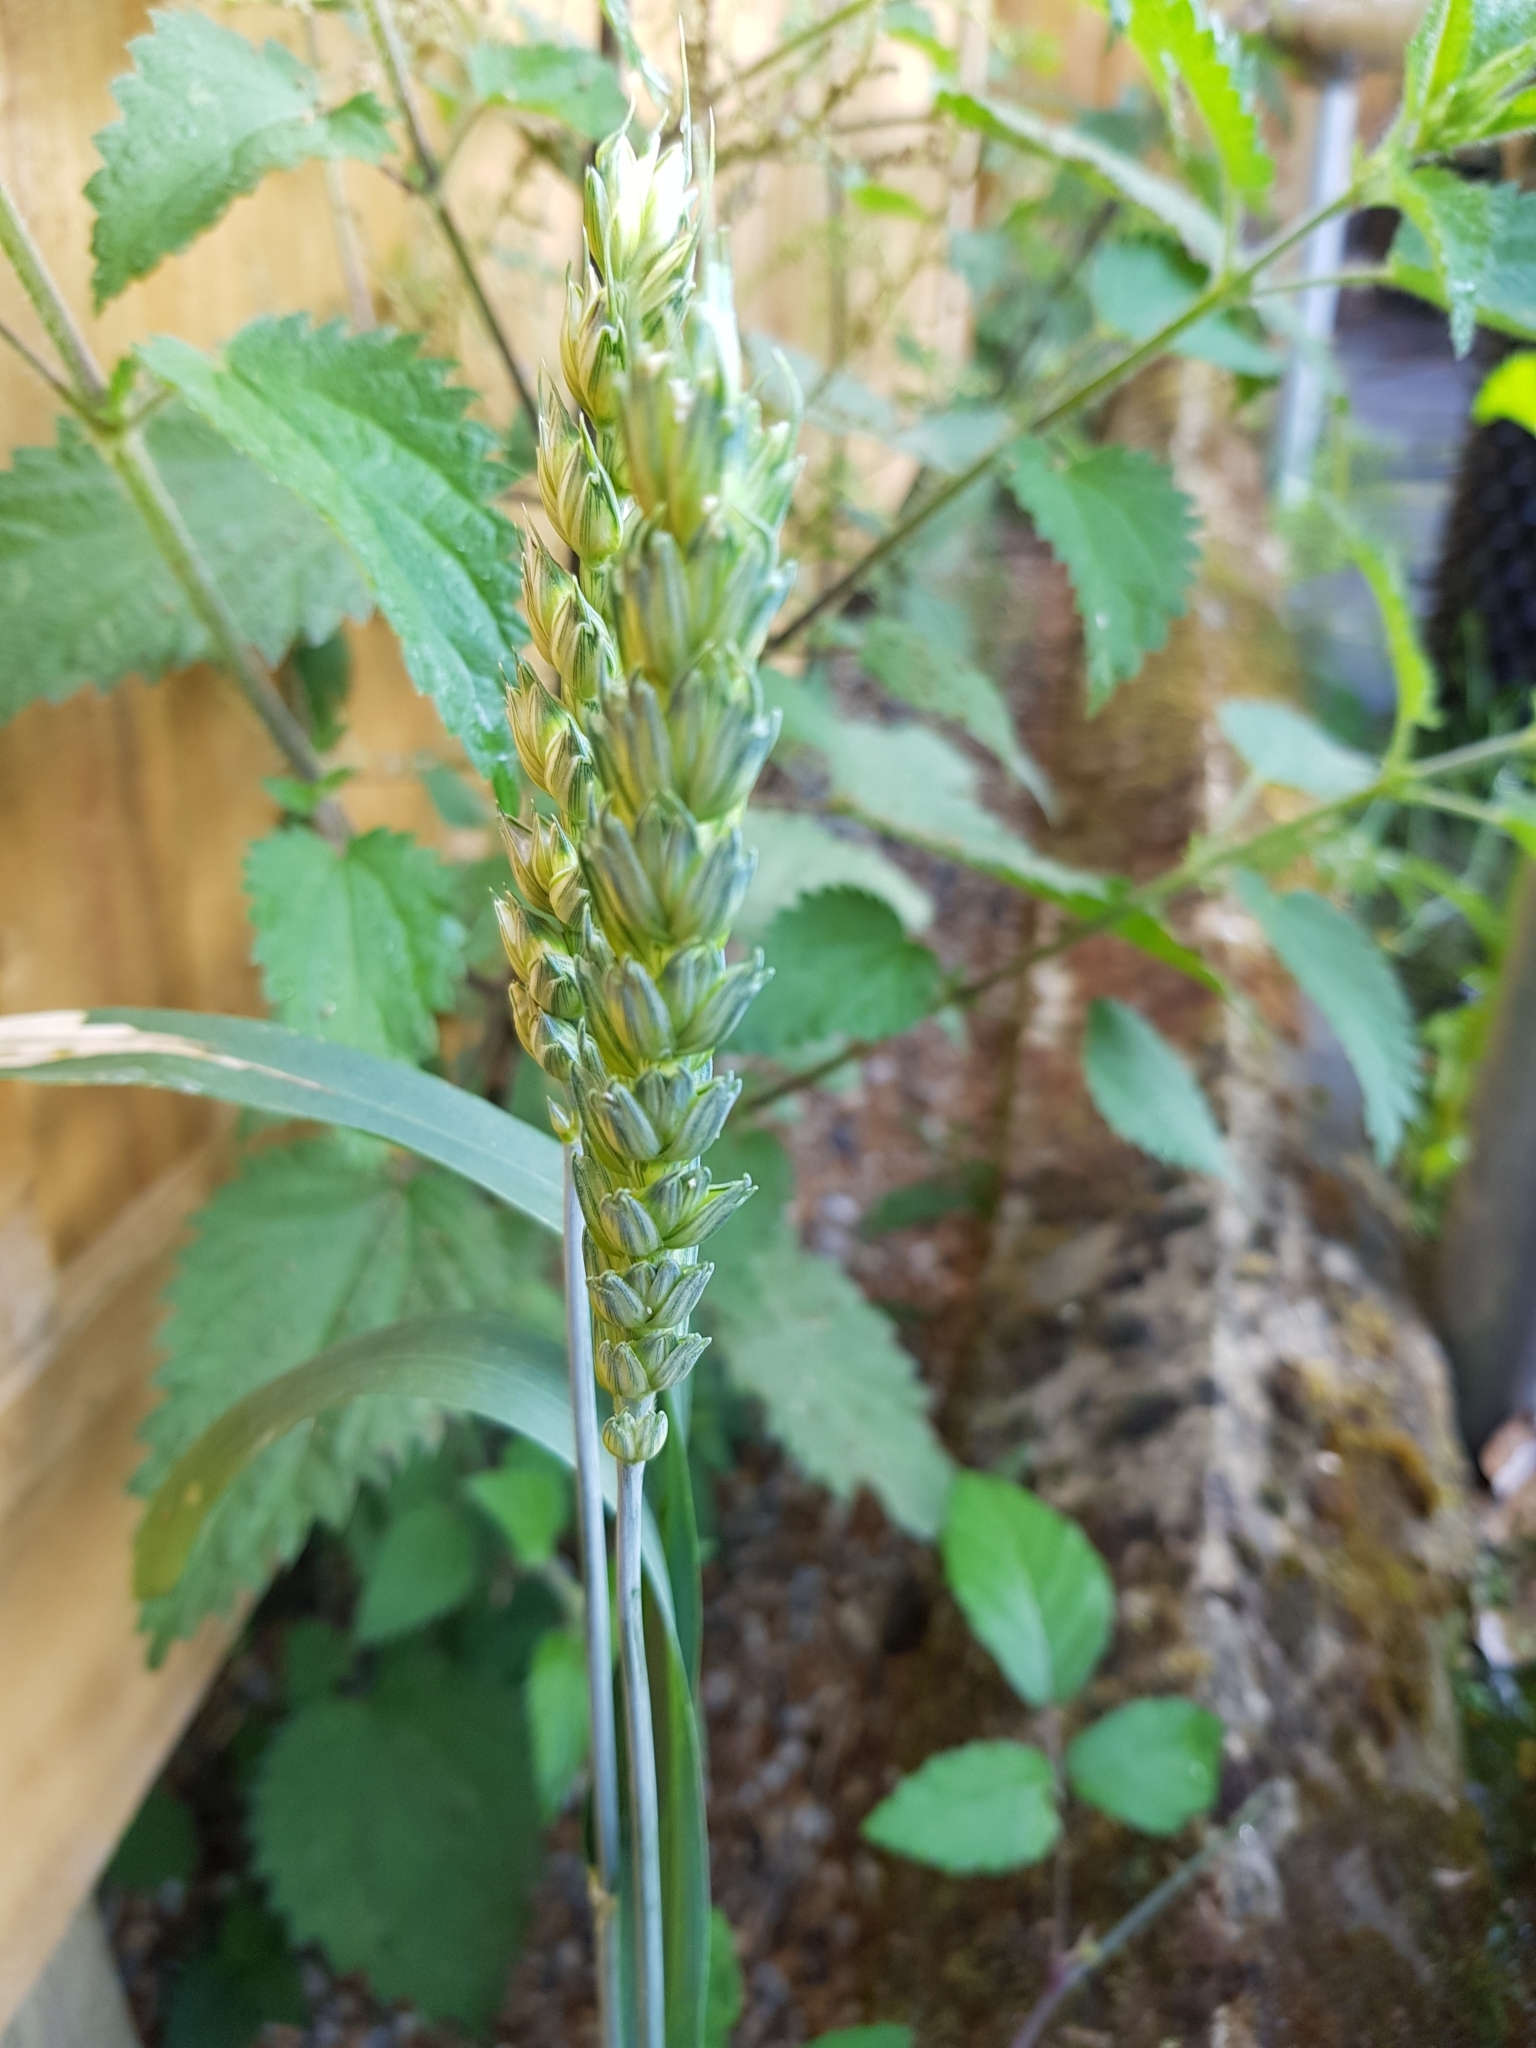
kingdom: Plantae
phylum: Tracheophyta
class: Liliopsida
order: Poales
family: Poaceae
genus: Triticum
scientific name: Triticum aestivum
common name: Common wheat
